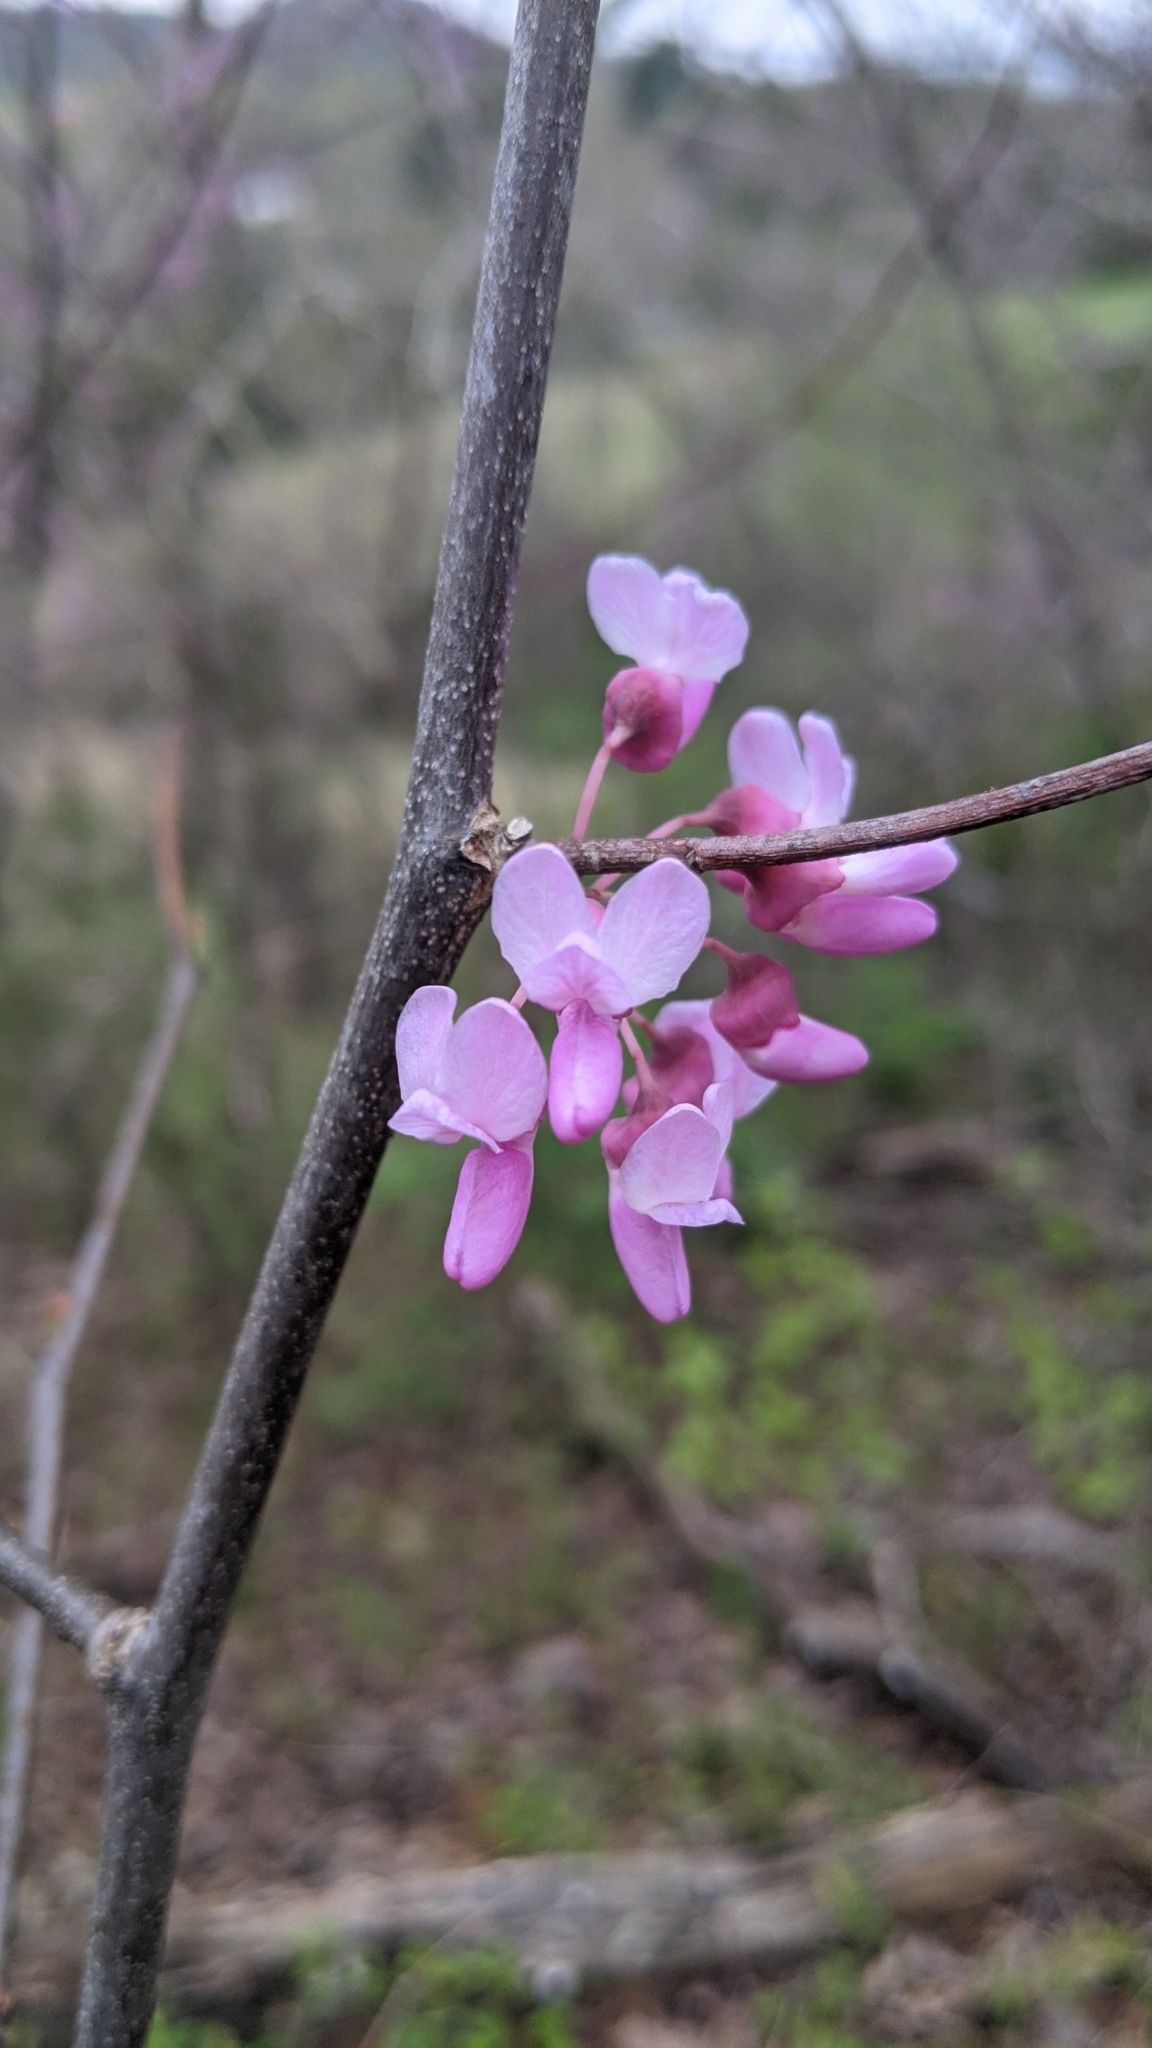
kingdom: Plantae
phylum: Tracheophyta
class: Magnoliopsida
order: Fabales
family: Fabaceae
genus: Cercis
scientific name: Cercis canadensis
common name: Eastern redbud
